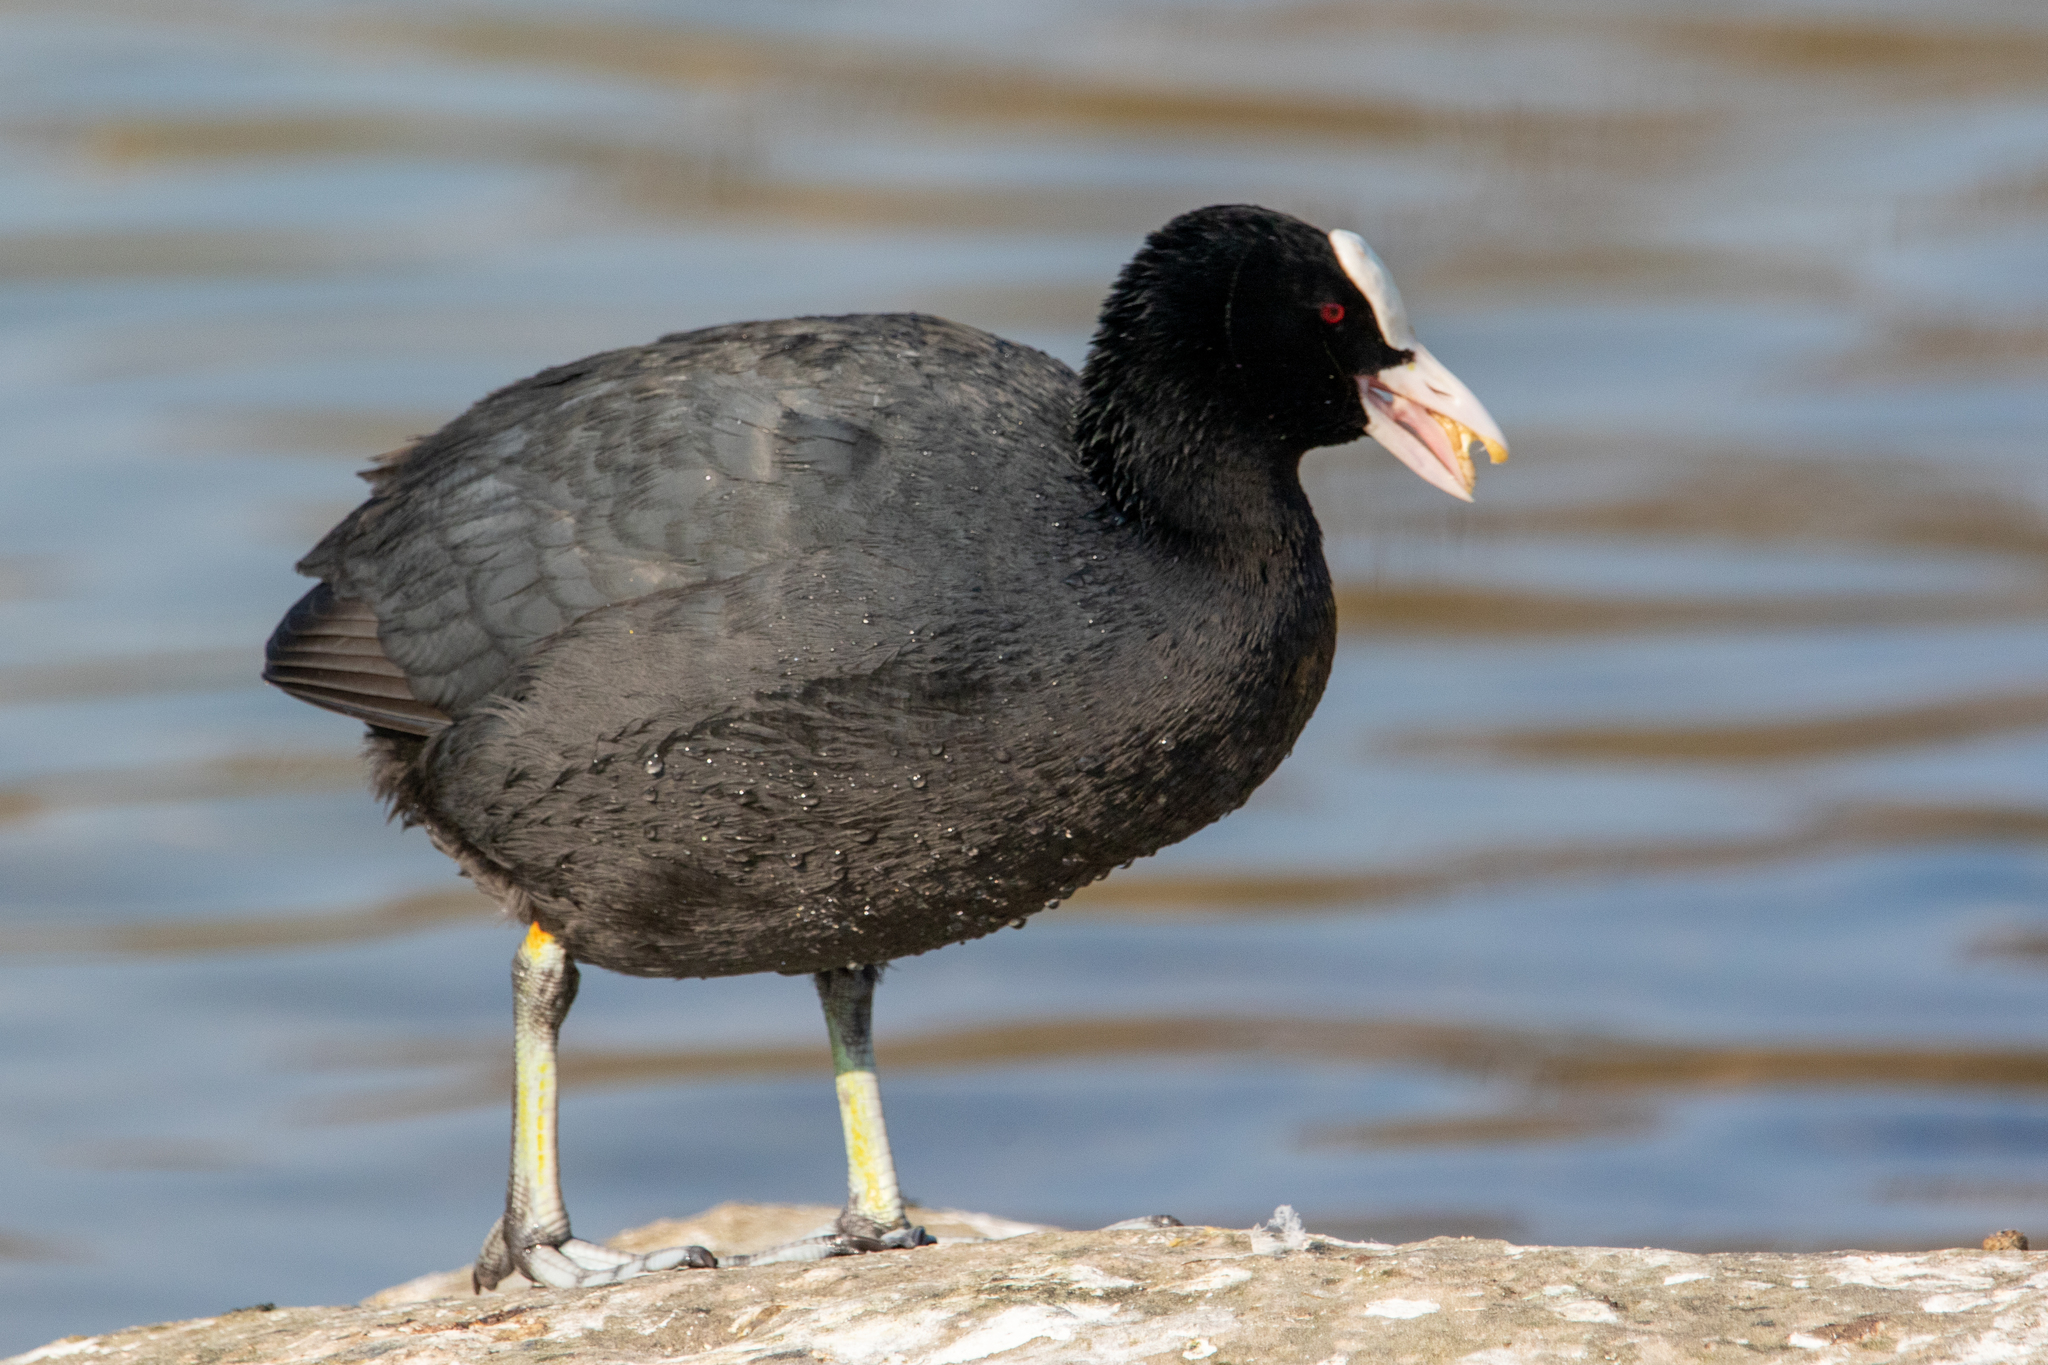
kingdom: Animalia
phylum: Chordata
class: Aves
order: Gruiformes
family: Rallidae
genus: Fulica
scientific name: Fulica atra
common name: Eurasian coot
